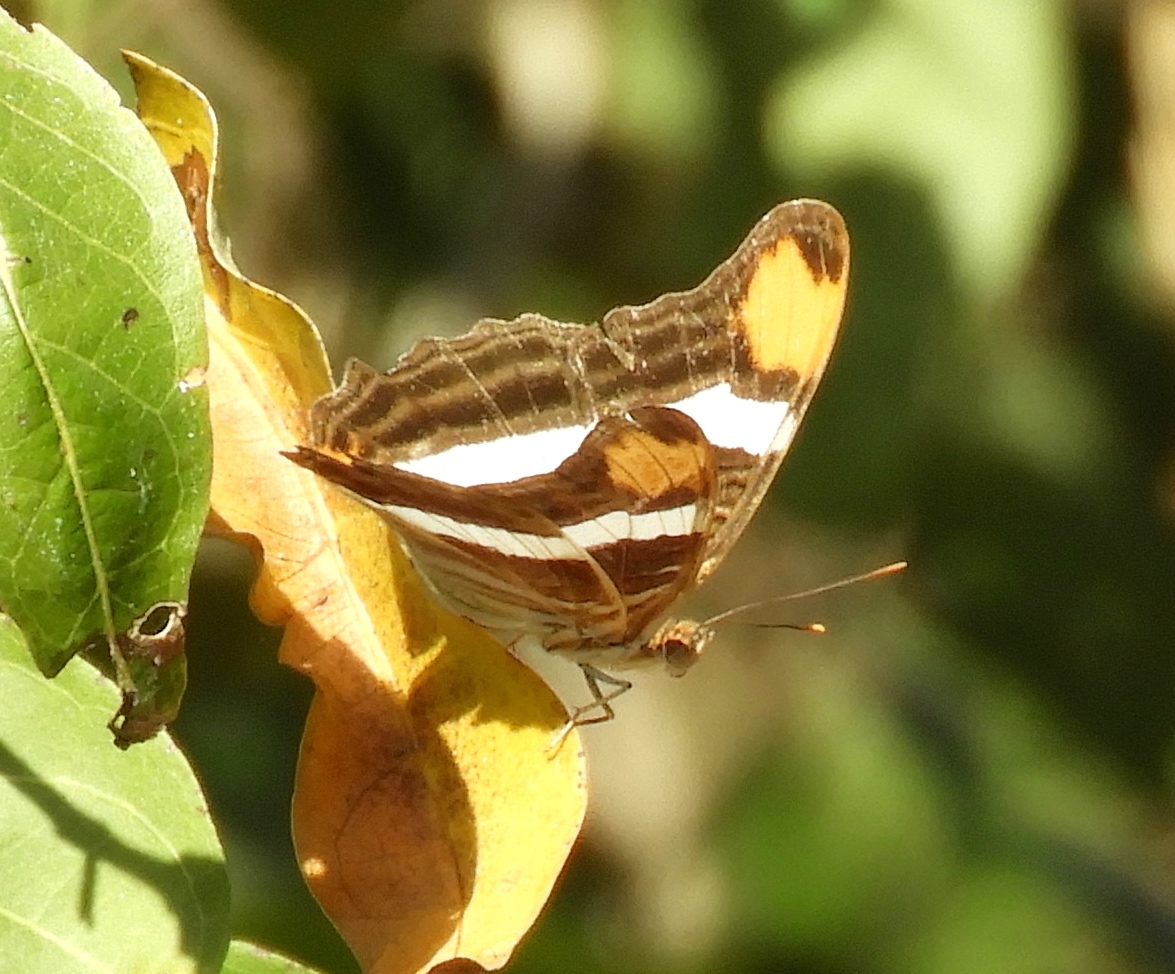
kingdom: Animalia
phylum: Arthropoda
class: Insecta
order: Lepidoptera
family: Nymphalidae
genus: Limenitis
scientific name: Limenitis fessonia
